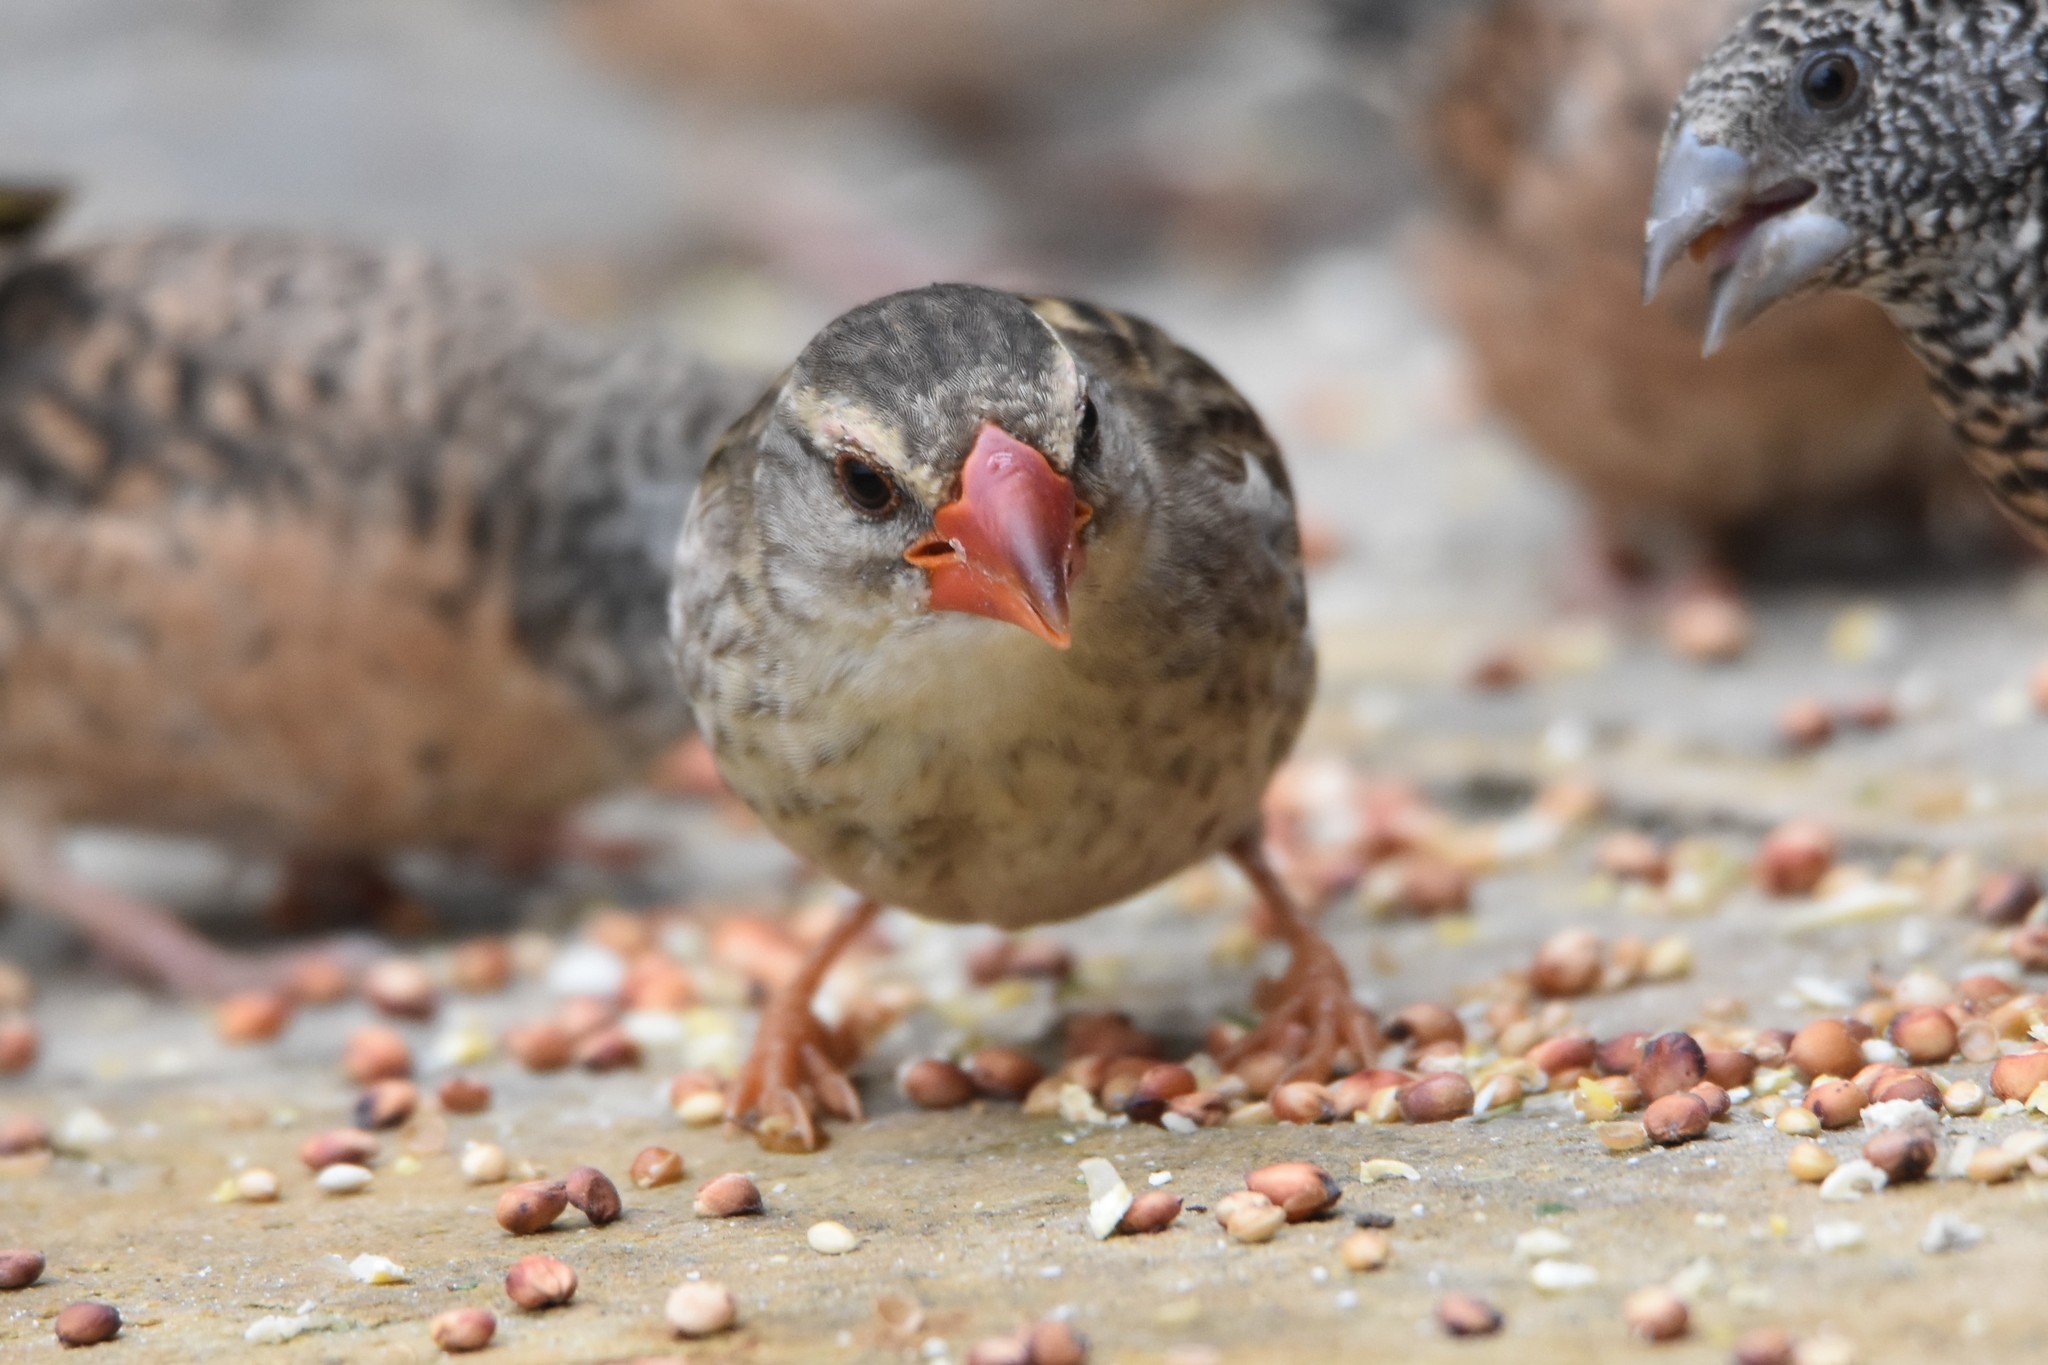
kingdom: Animalia
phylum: Chordata
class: Aves
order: Passeriformes
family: Ploceidae
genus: Quelea
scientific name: Quelea quelea
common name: Red-billed quelea
